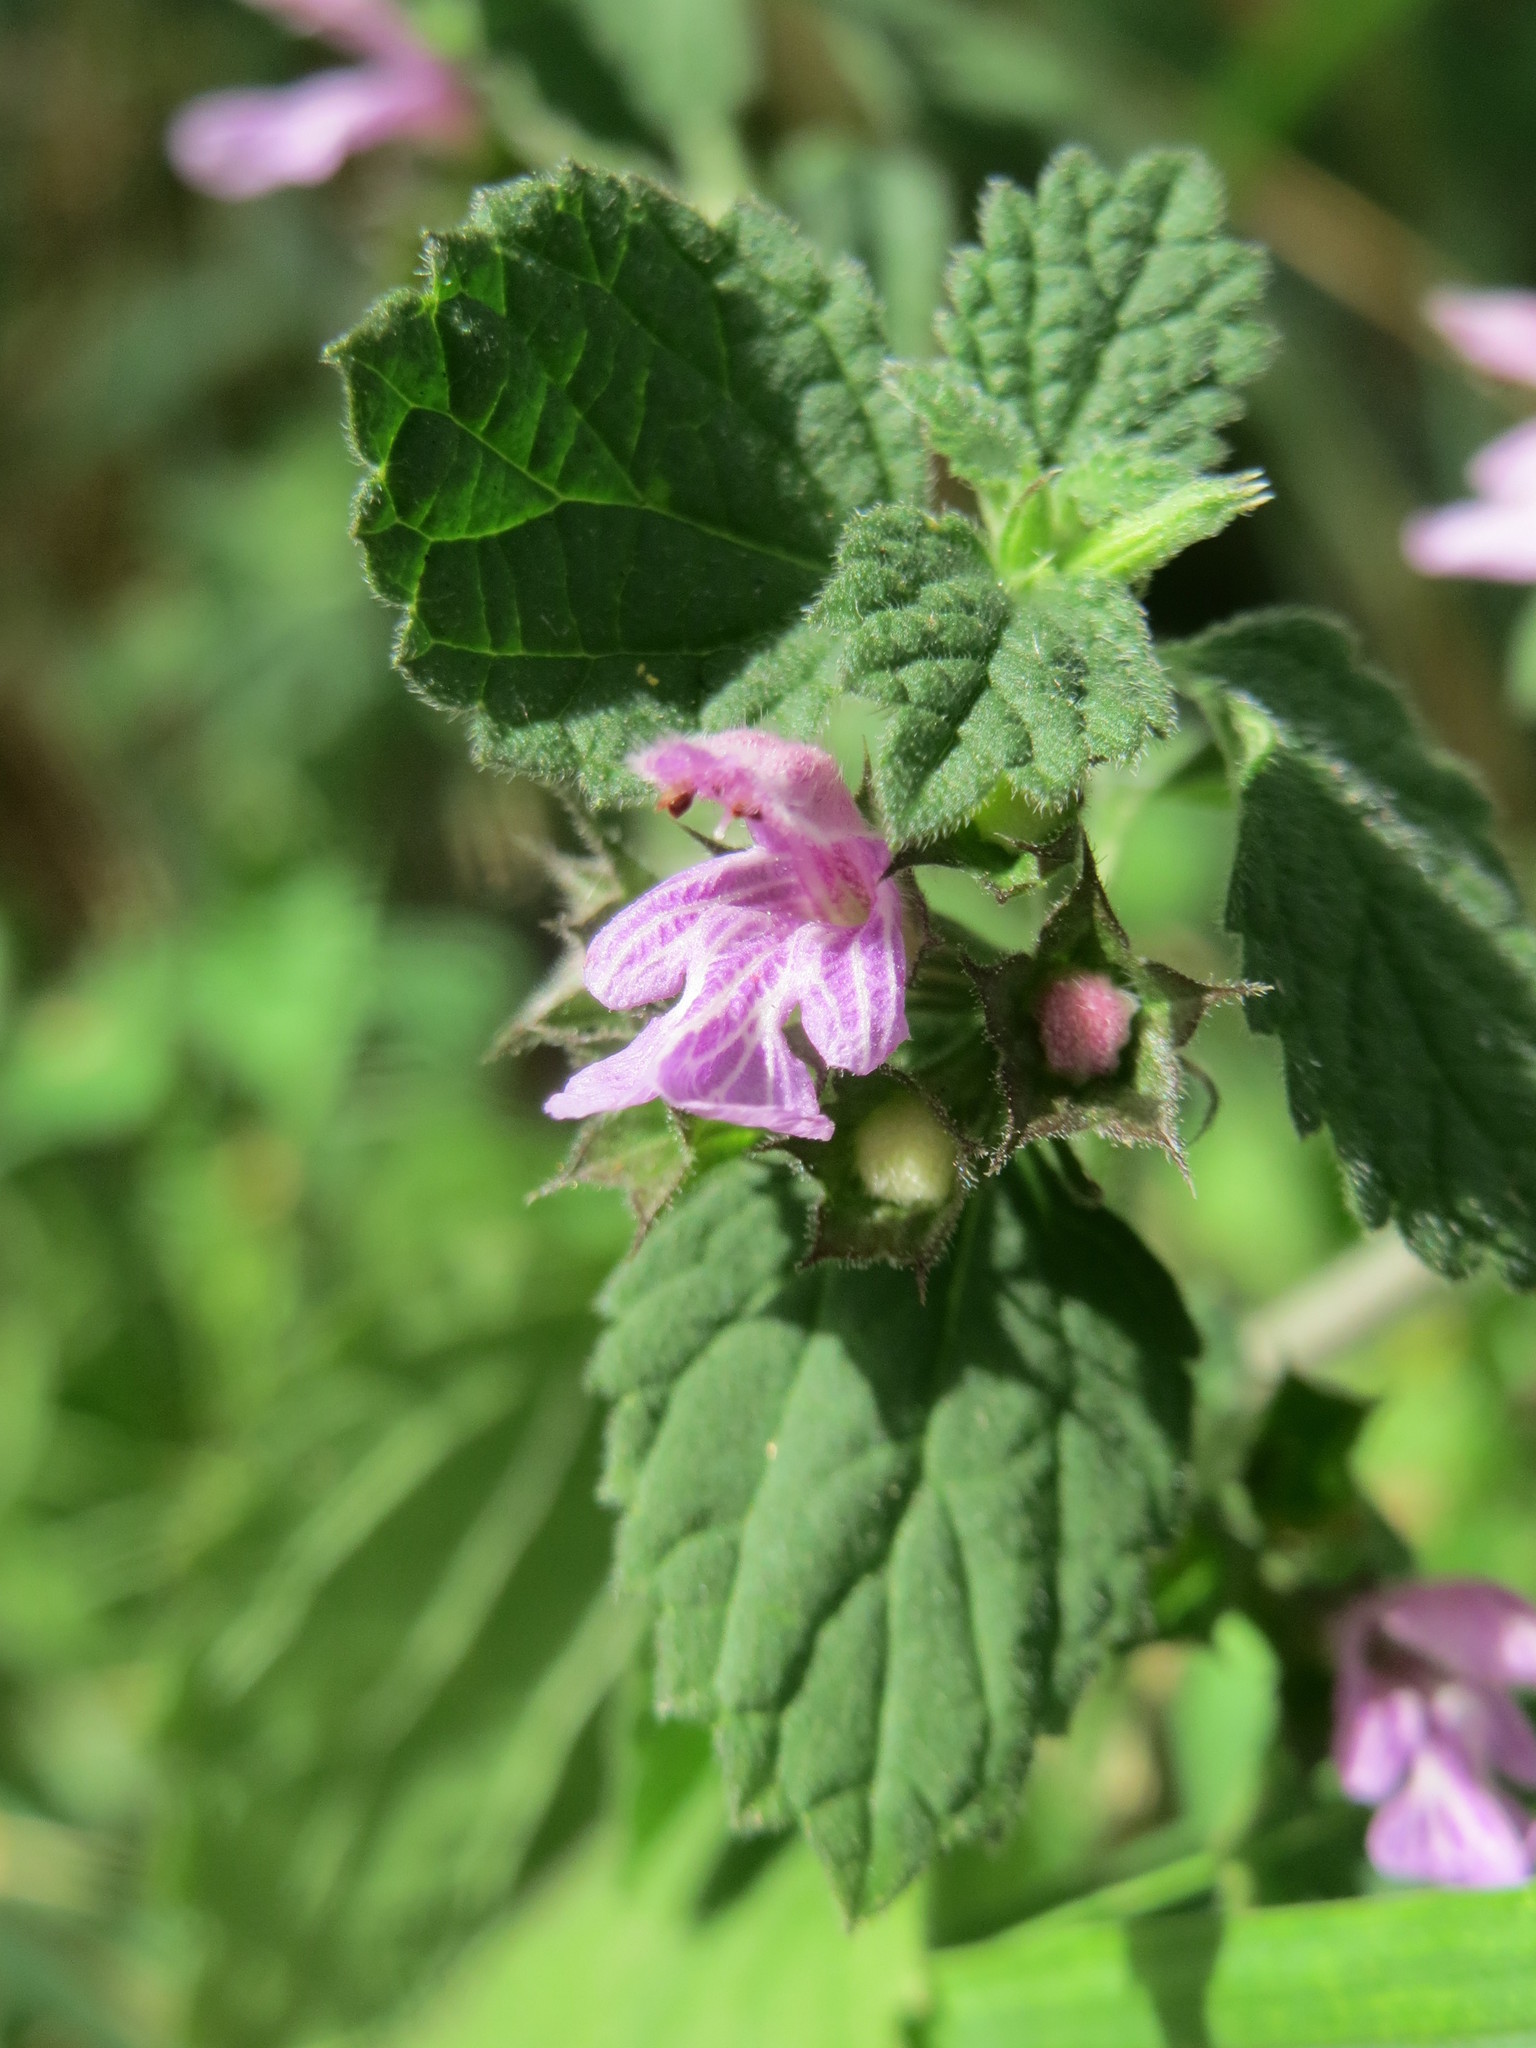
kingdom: Plantae
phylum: Tracheophyta
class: Magnoliopsida
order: Lamiales
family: Lamiaceae
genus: Ballota
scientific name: Ballota nigra
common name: Black horehound
